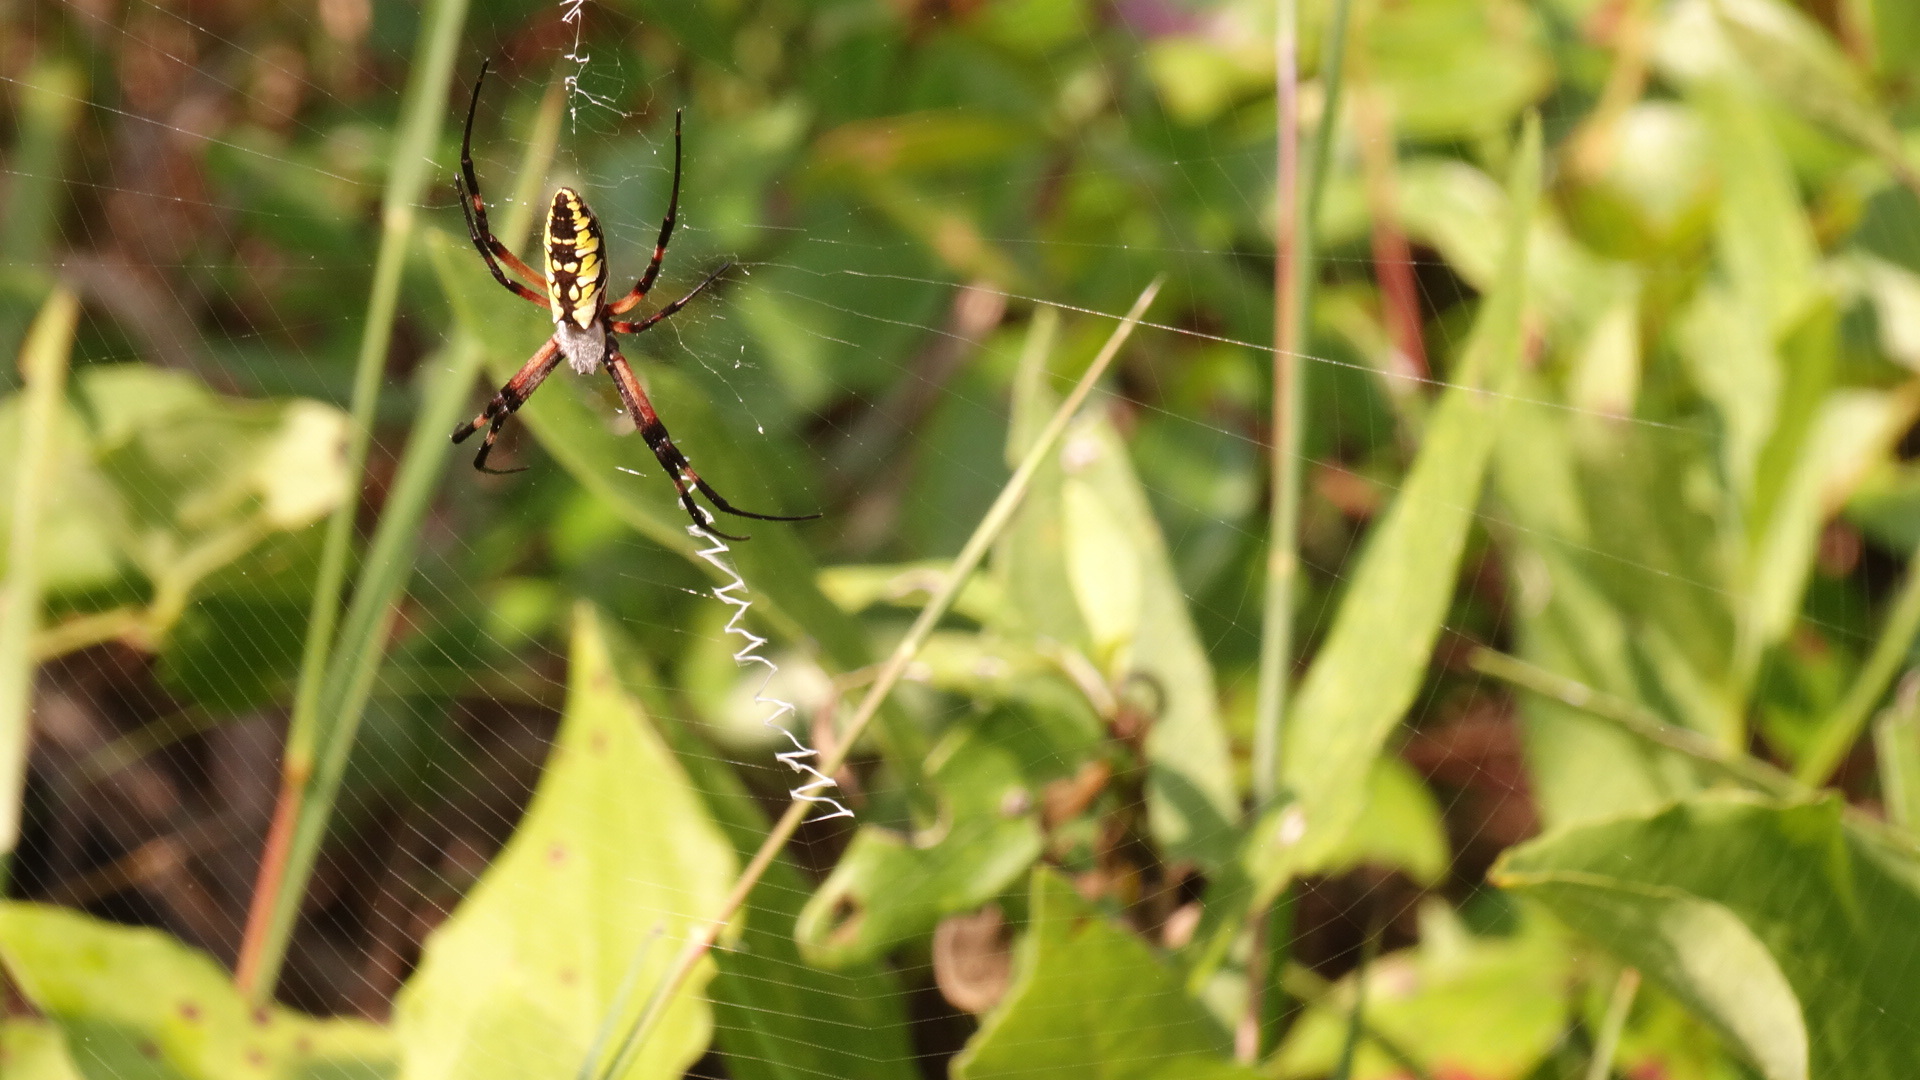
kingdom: Animalia
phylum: Arthropoda
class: Arachnida
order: Araneae
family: Araneidae
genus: Argiope
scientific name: Argiope aurantia
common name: Orb weavers
